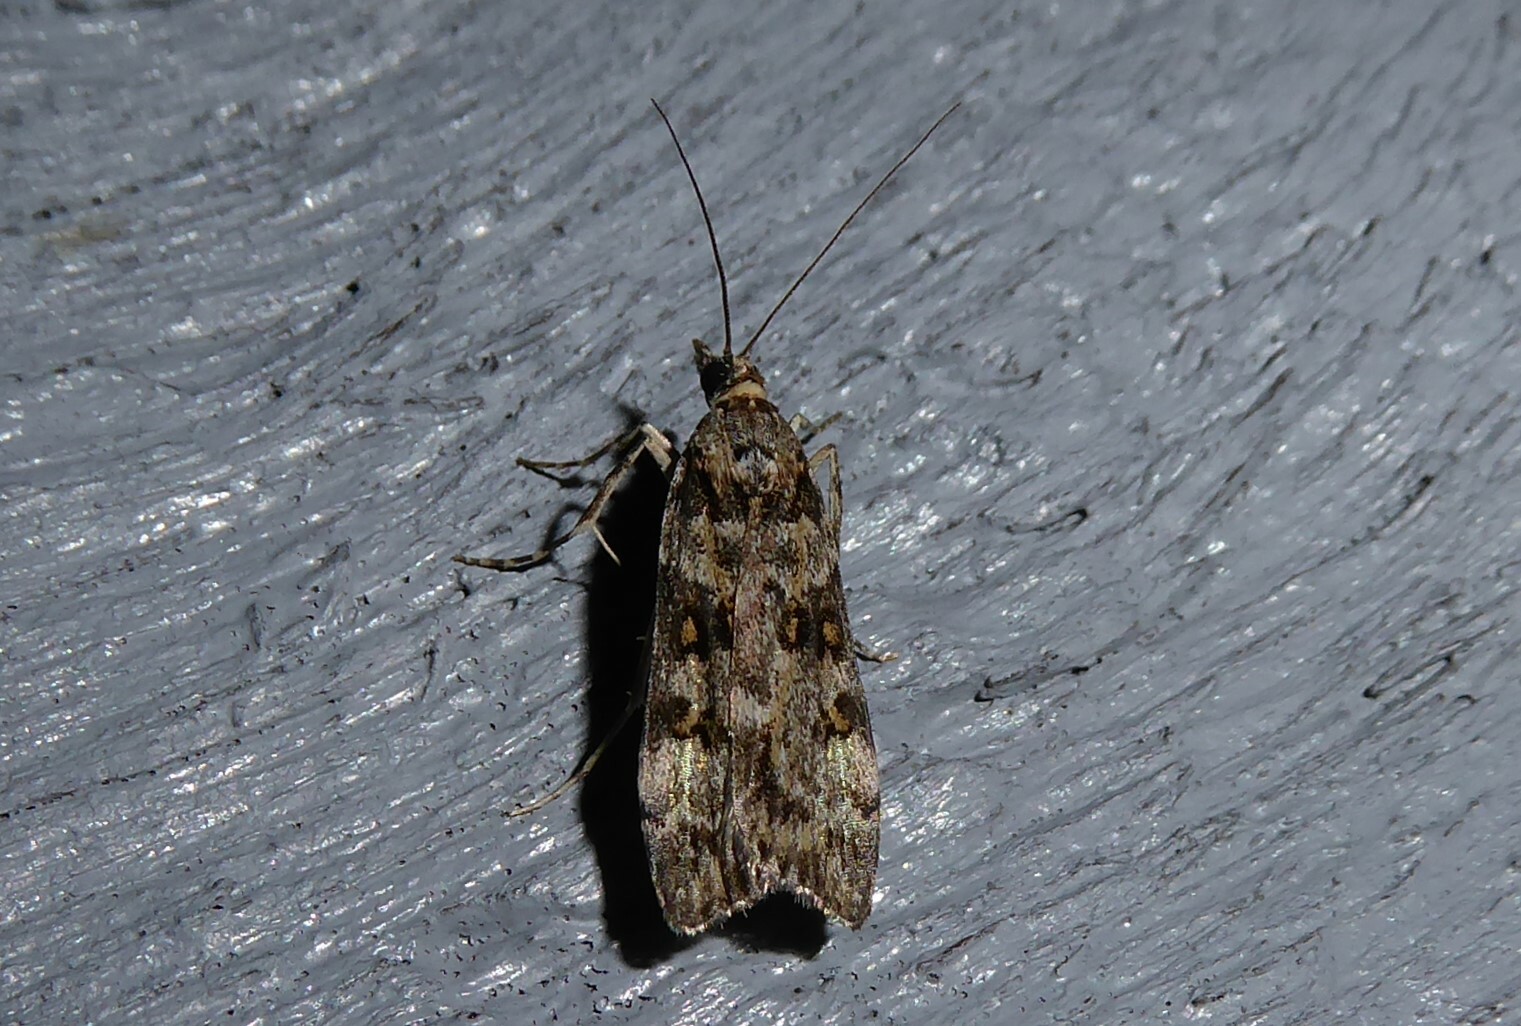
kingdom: Animalia
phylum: Arthropoda
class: Insecta
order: Lepidoptera
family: Crambidae
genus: Eudonia
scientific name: Eudonia diphtheralis
